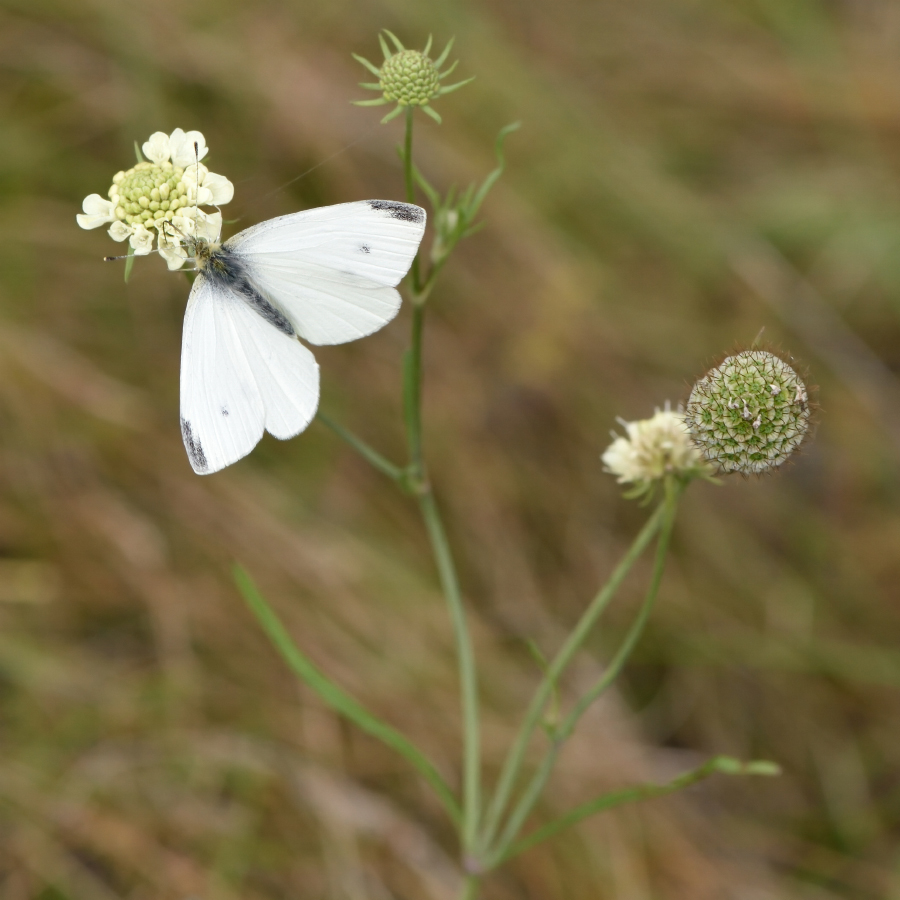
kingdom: Animalia
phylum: Arthropoda
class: Insecta
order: Lepidoptera
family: Pieridae
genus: Pieris
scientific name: Pieris rapae
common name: Small white
